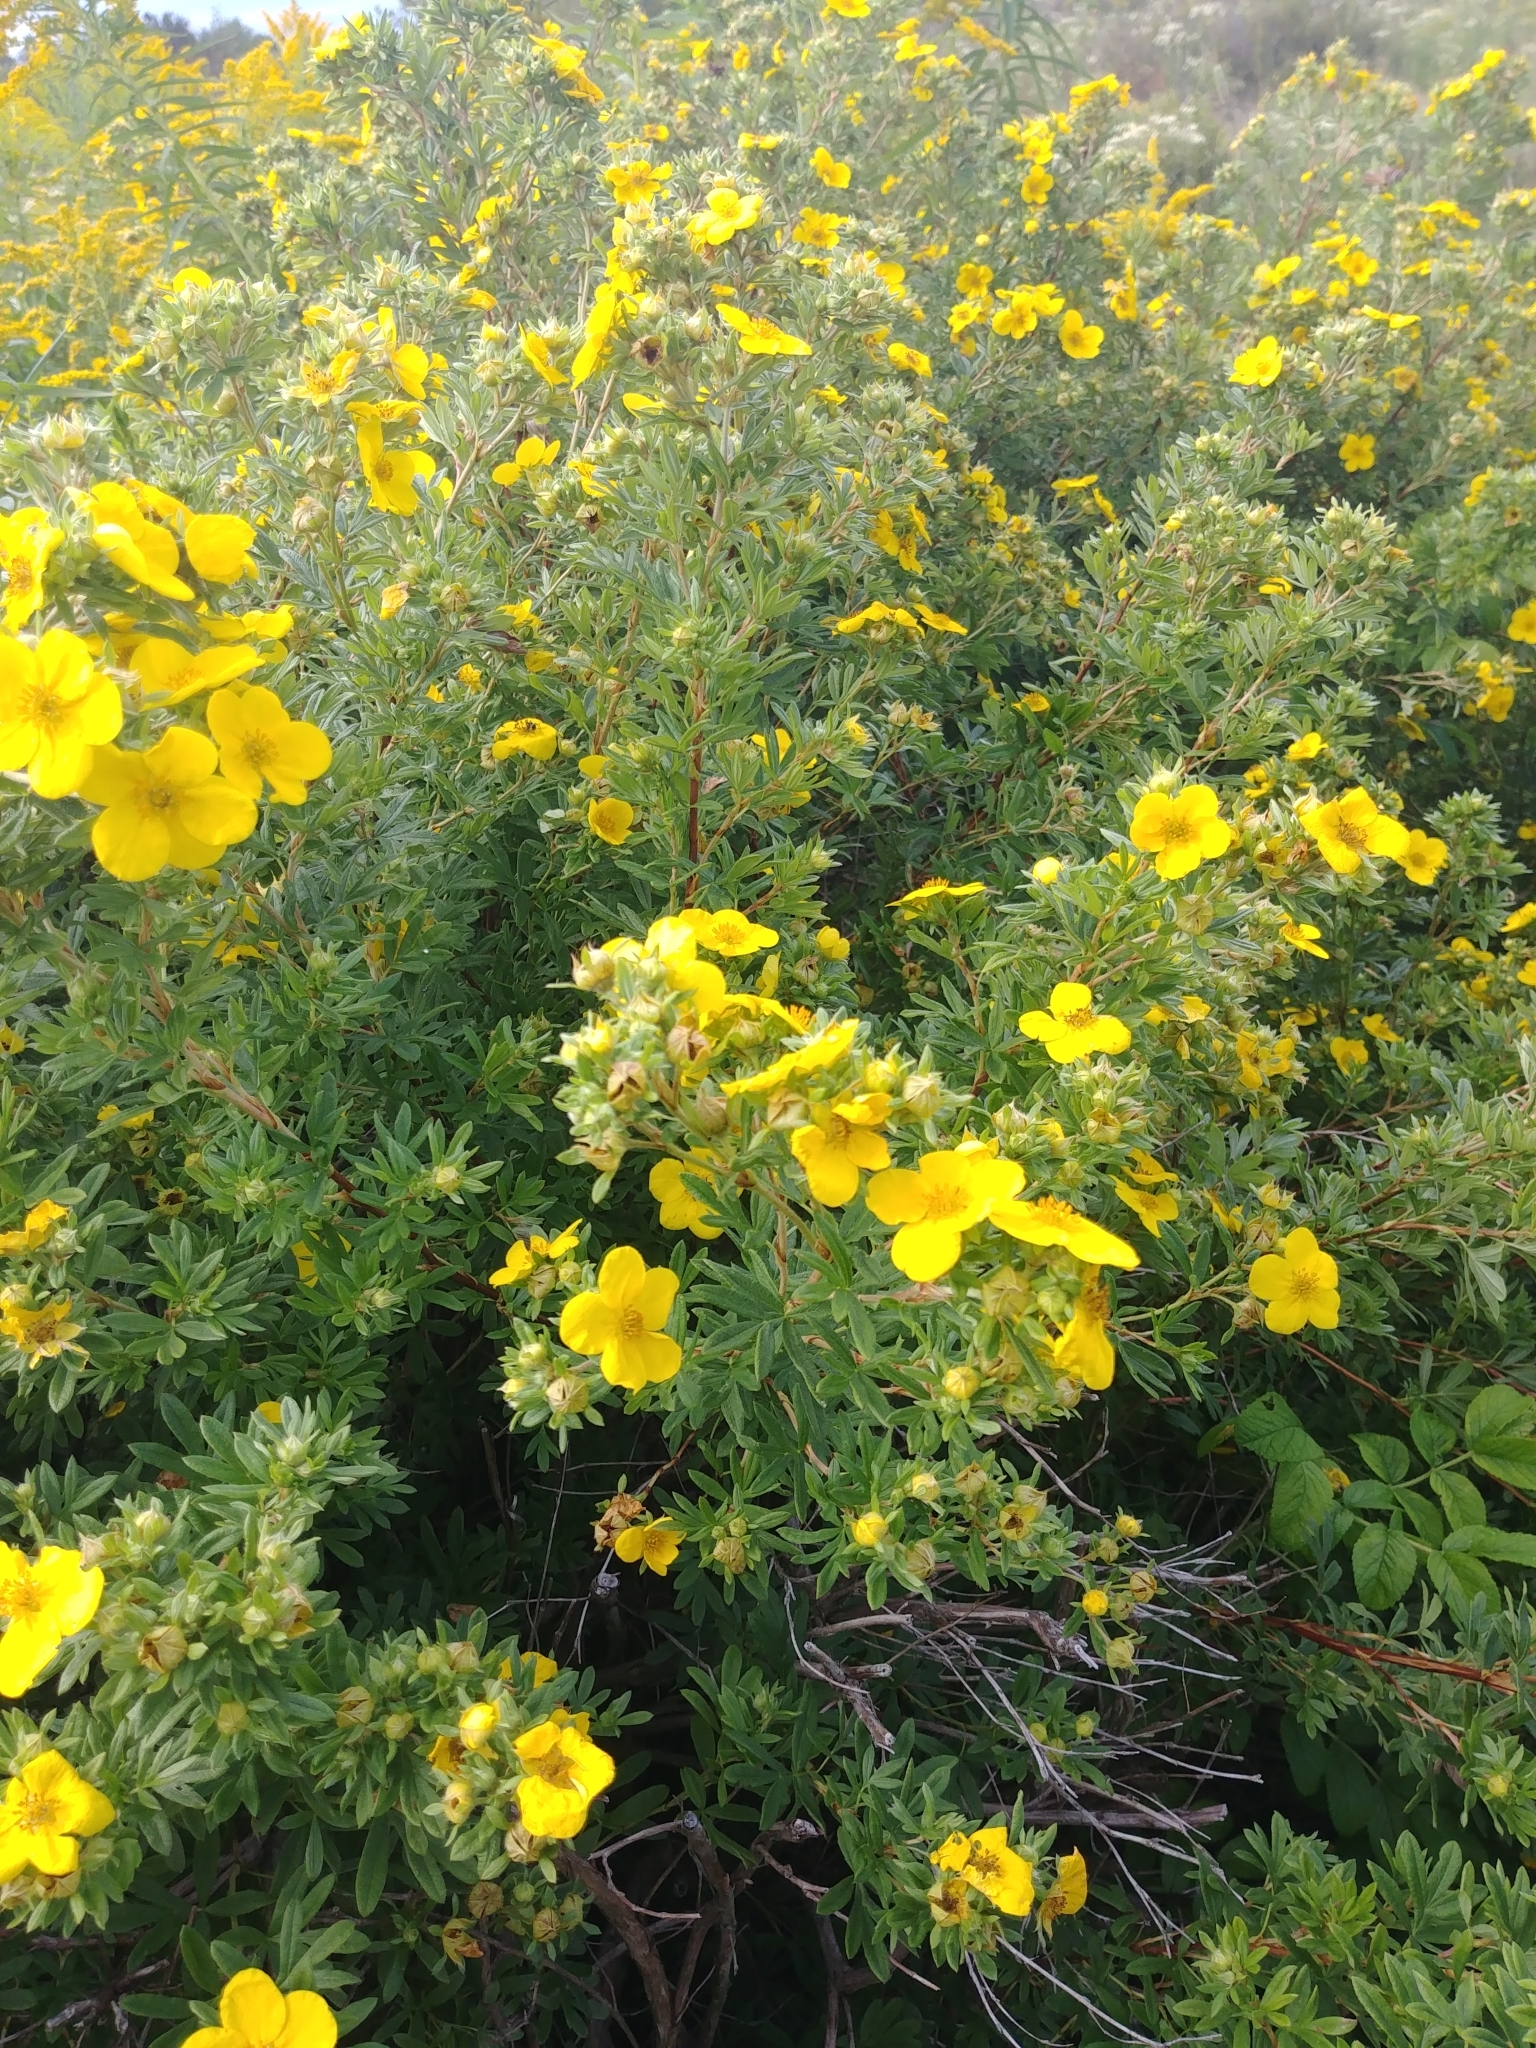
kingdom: Plantae
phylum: Tracheophyta
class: Magnoliopsida
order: Rosales
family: Rosaceae
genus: Dasiphora
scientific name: Dasiphora fruticosa
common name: Shrubby cinquefoil
